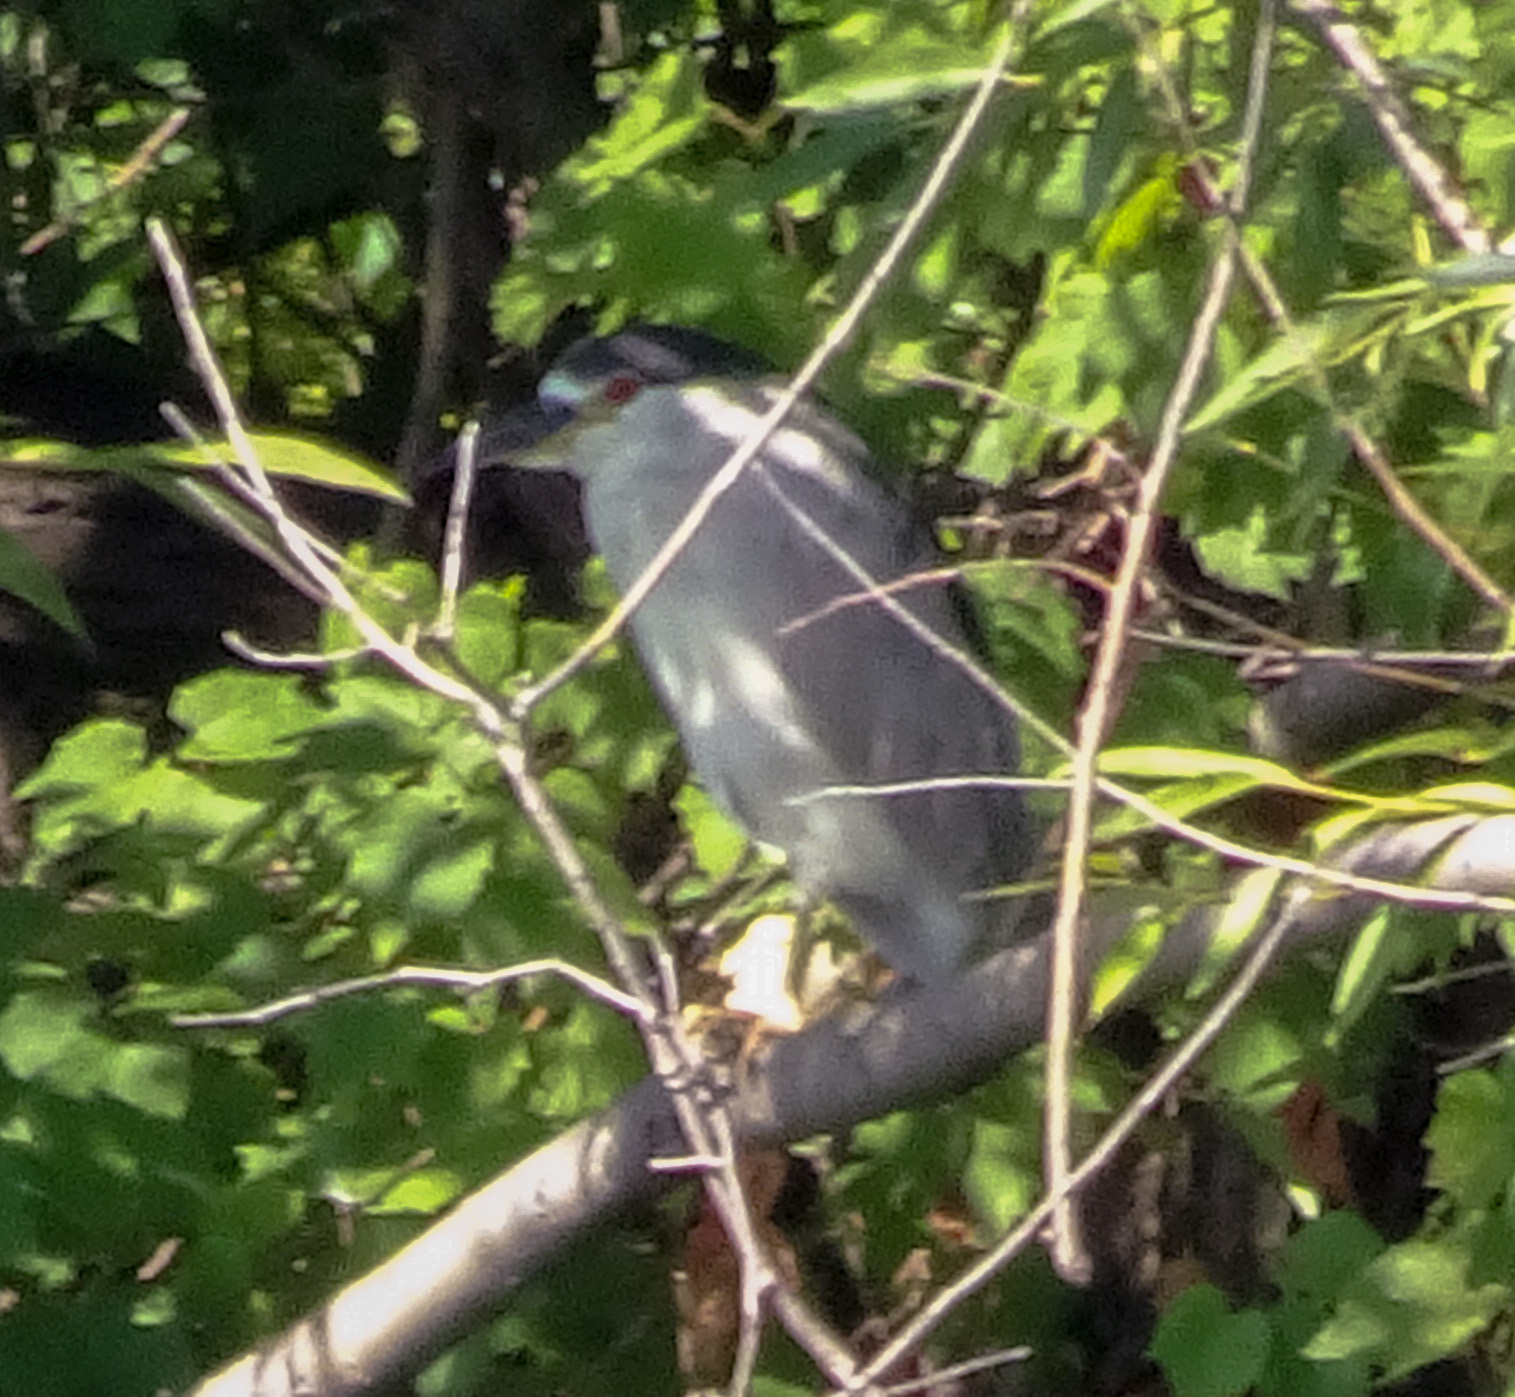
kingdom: Animalia
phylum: Chordata
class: Aves
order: Pelecaniformes
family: Ardeidae
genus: Nycticorax
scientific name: Nycticorax nycticorax
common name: Black-crowned night heron
